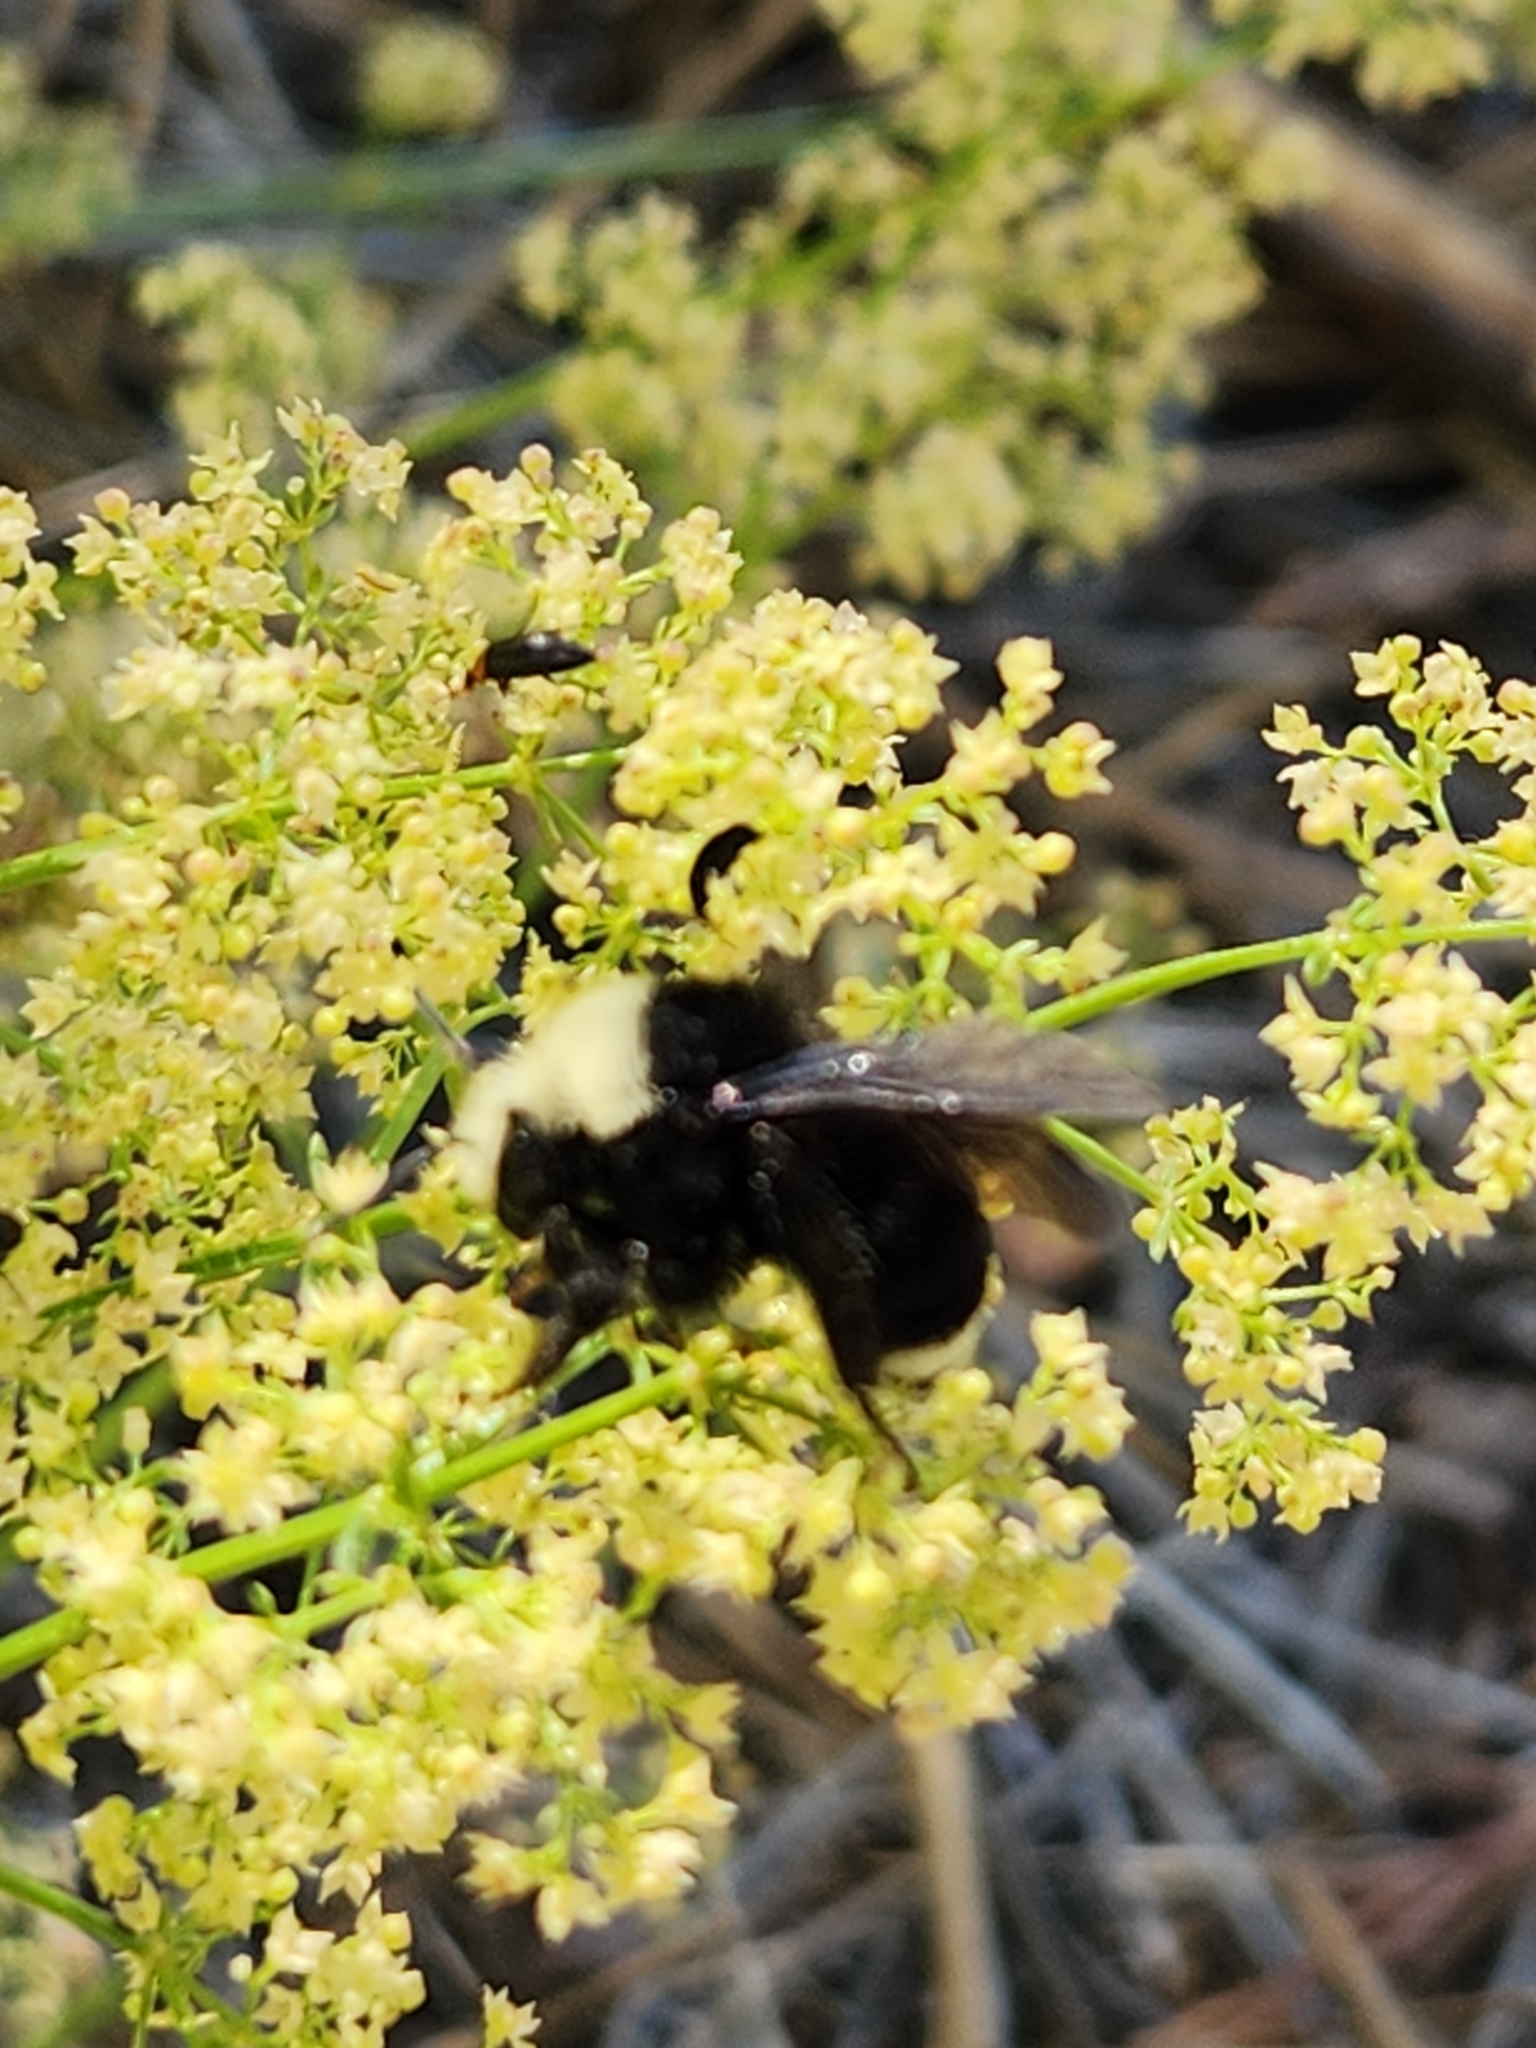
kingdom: Animalia
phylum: Arthropoda
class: Insecta
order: Hymenoptera
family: Apidae
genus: Bombus
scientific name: Bombus vosnesenskii
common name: Vosnesensky bumble bee
